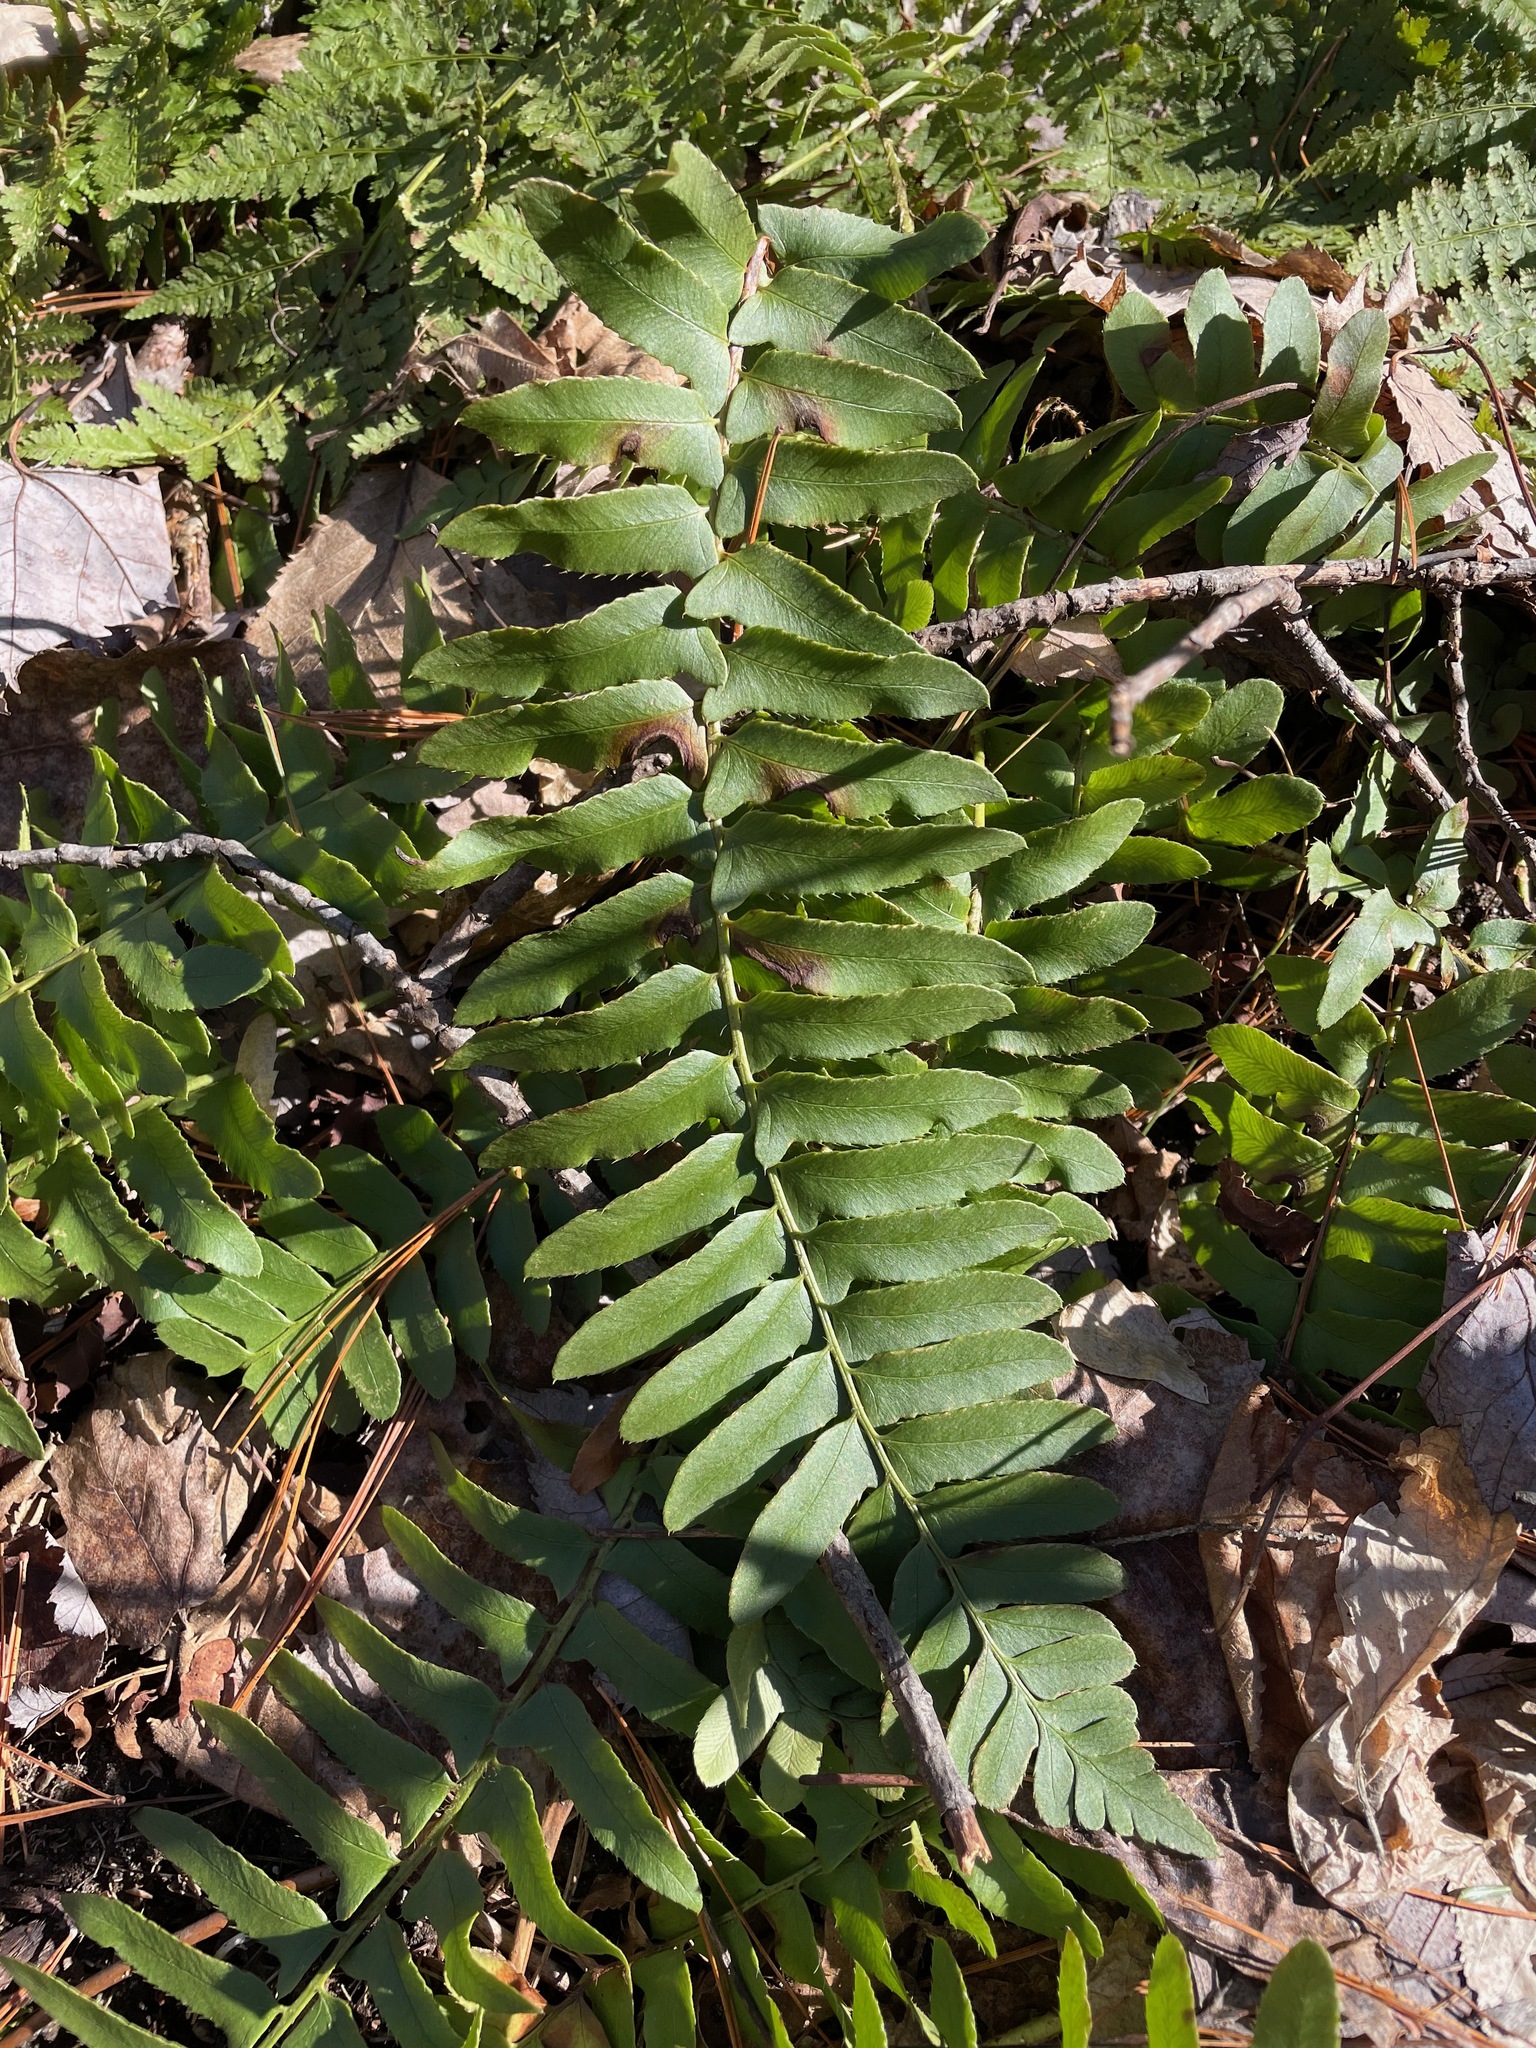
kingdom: Plantae
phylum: Tracheophyta
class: Polypodiopsida
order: Polypodiales
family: Dryopteridaceae
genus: Polystichum
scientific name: Polystichum acrostichoides
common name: Christmas fern
